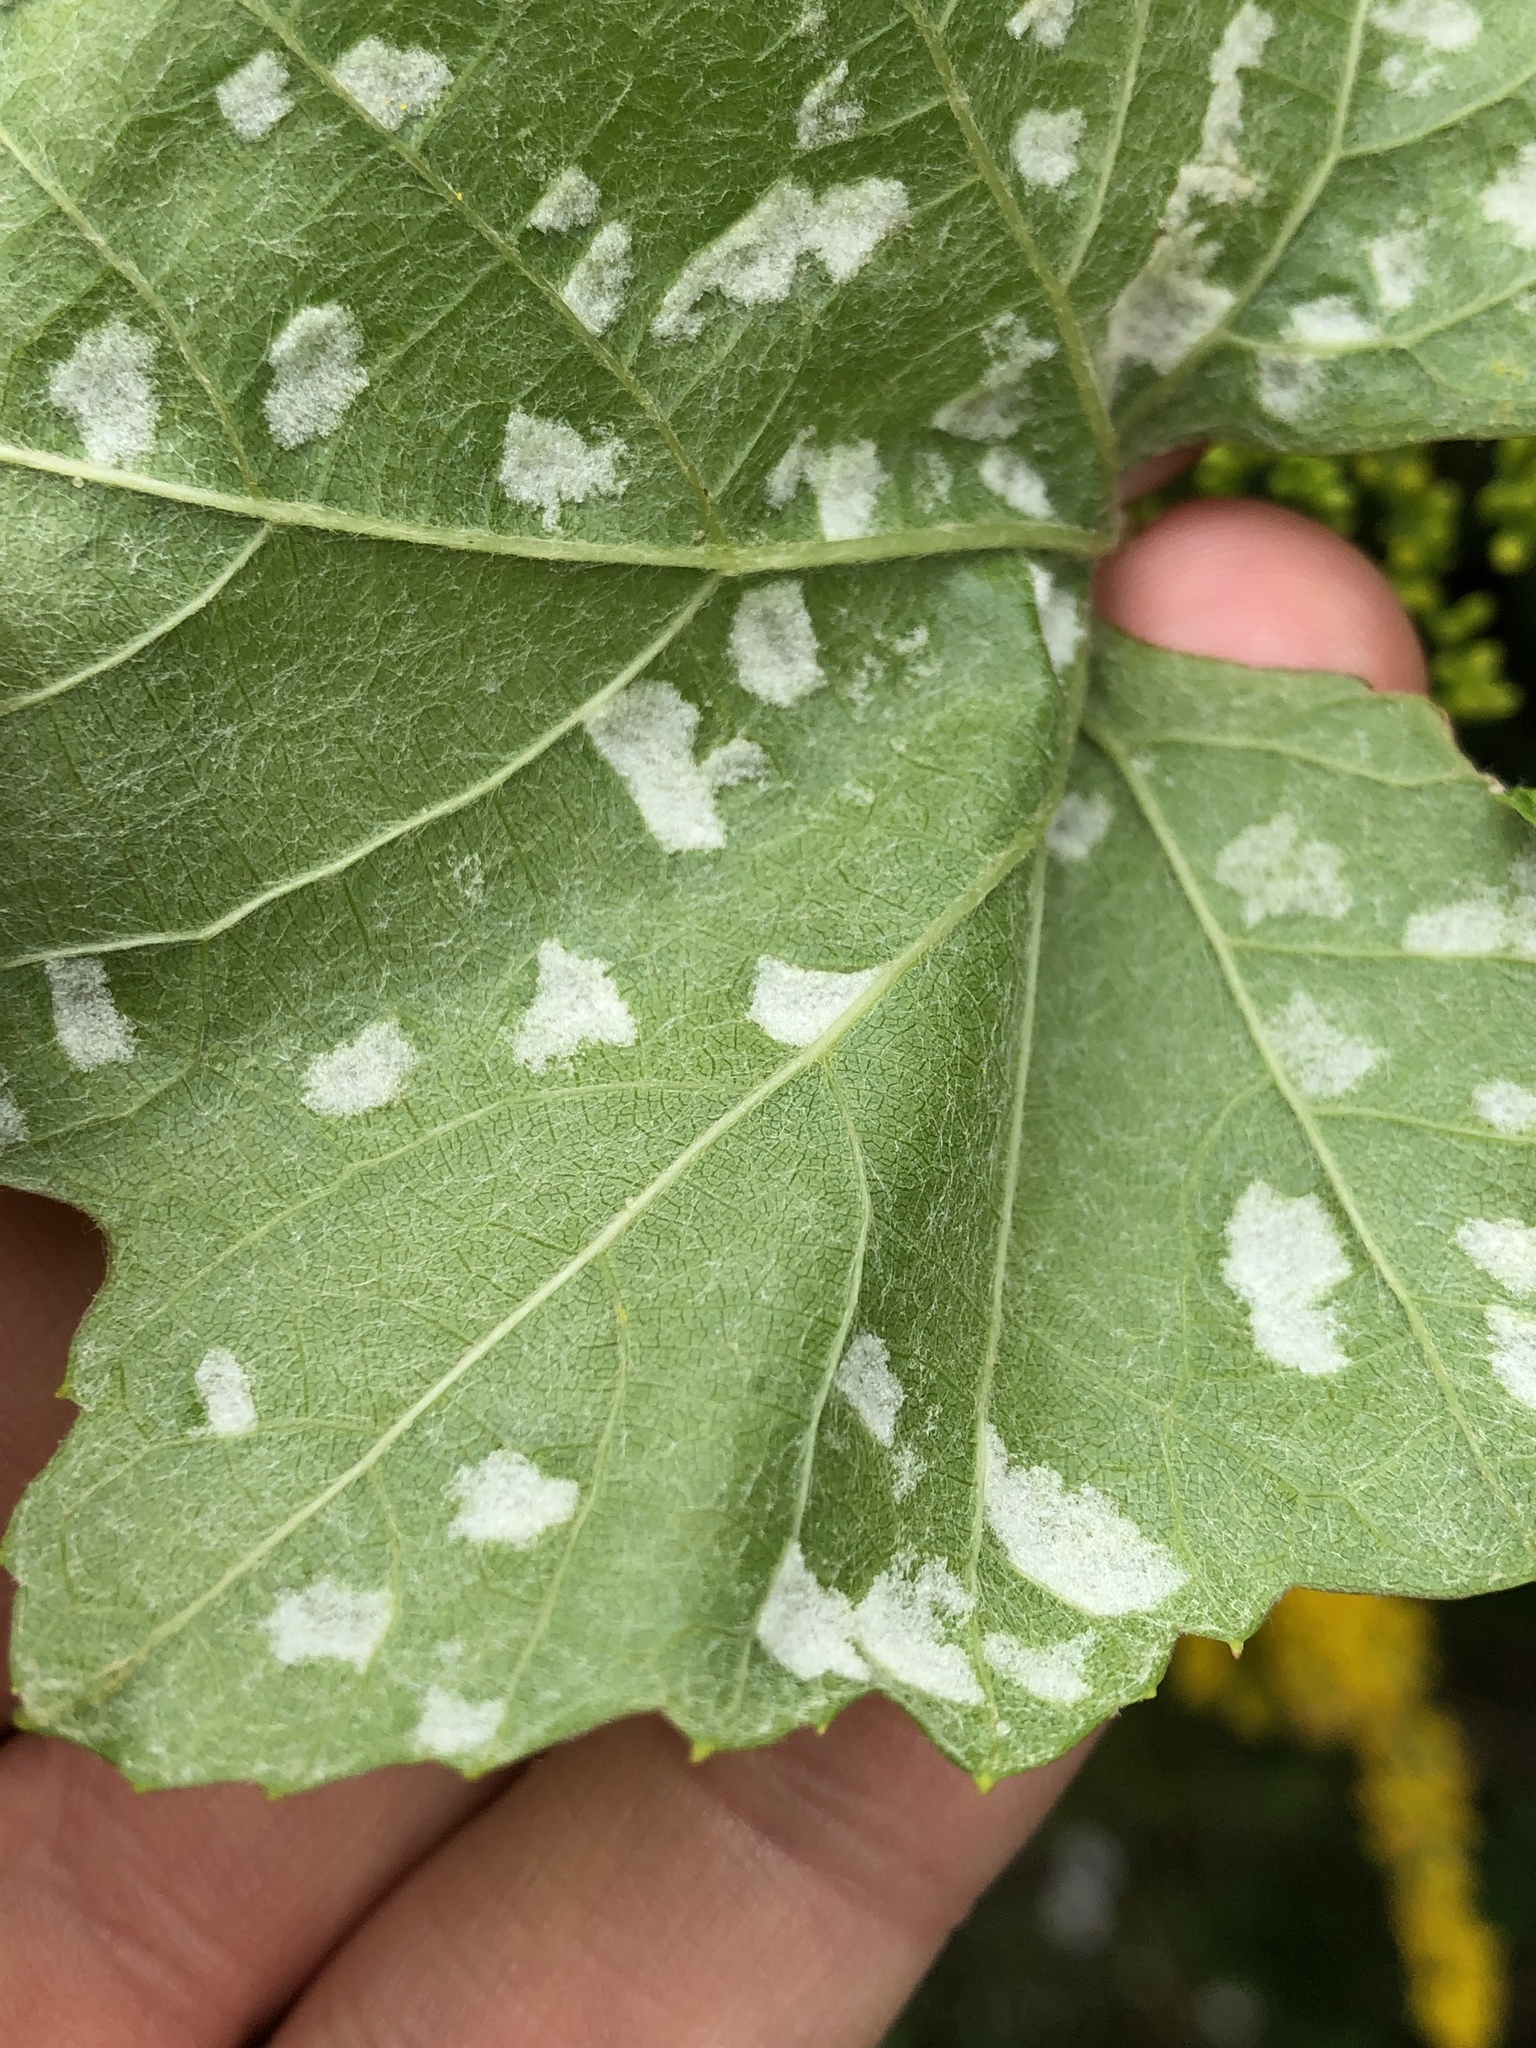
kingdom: Animalia
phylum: Arthropoda
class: Arachnida
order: Trombidiformes
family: Eriophyidae
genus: Colomerus
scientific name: Colomerus vitis
